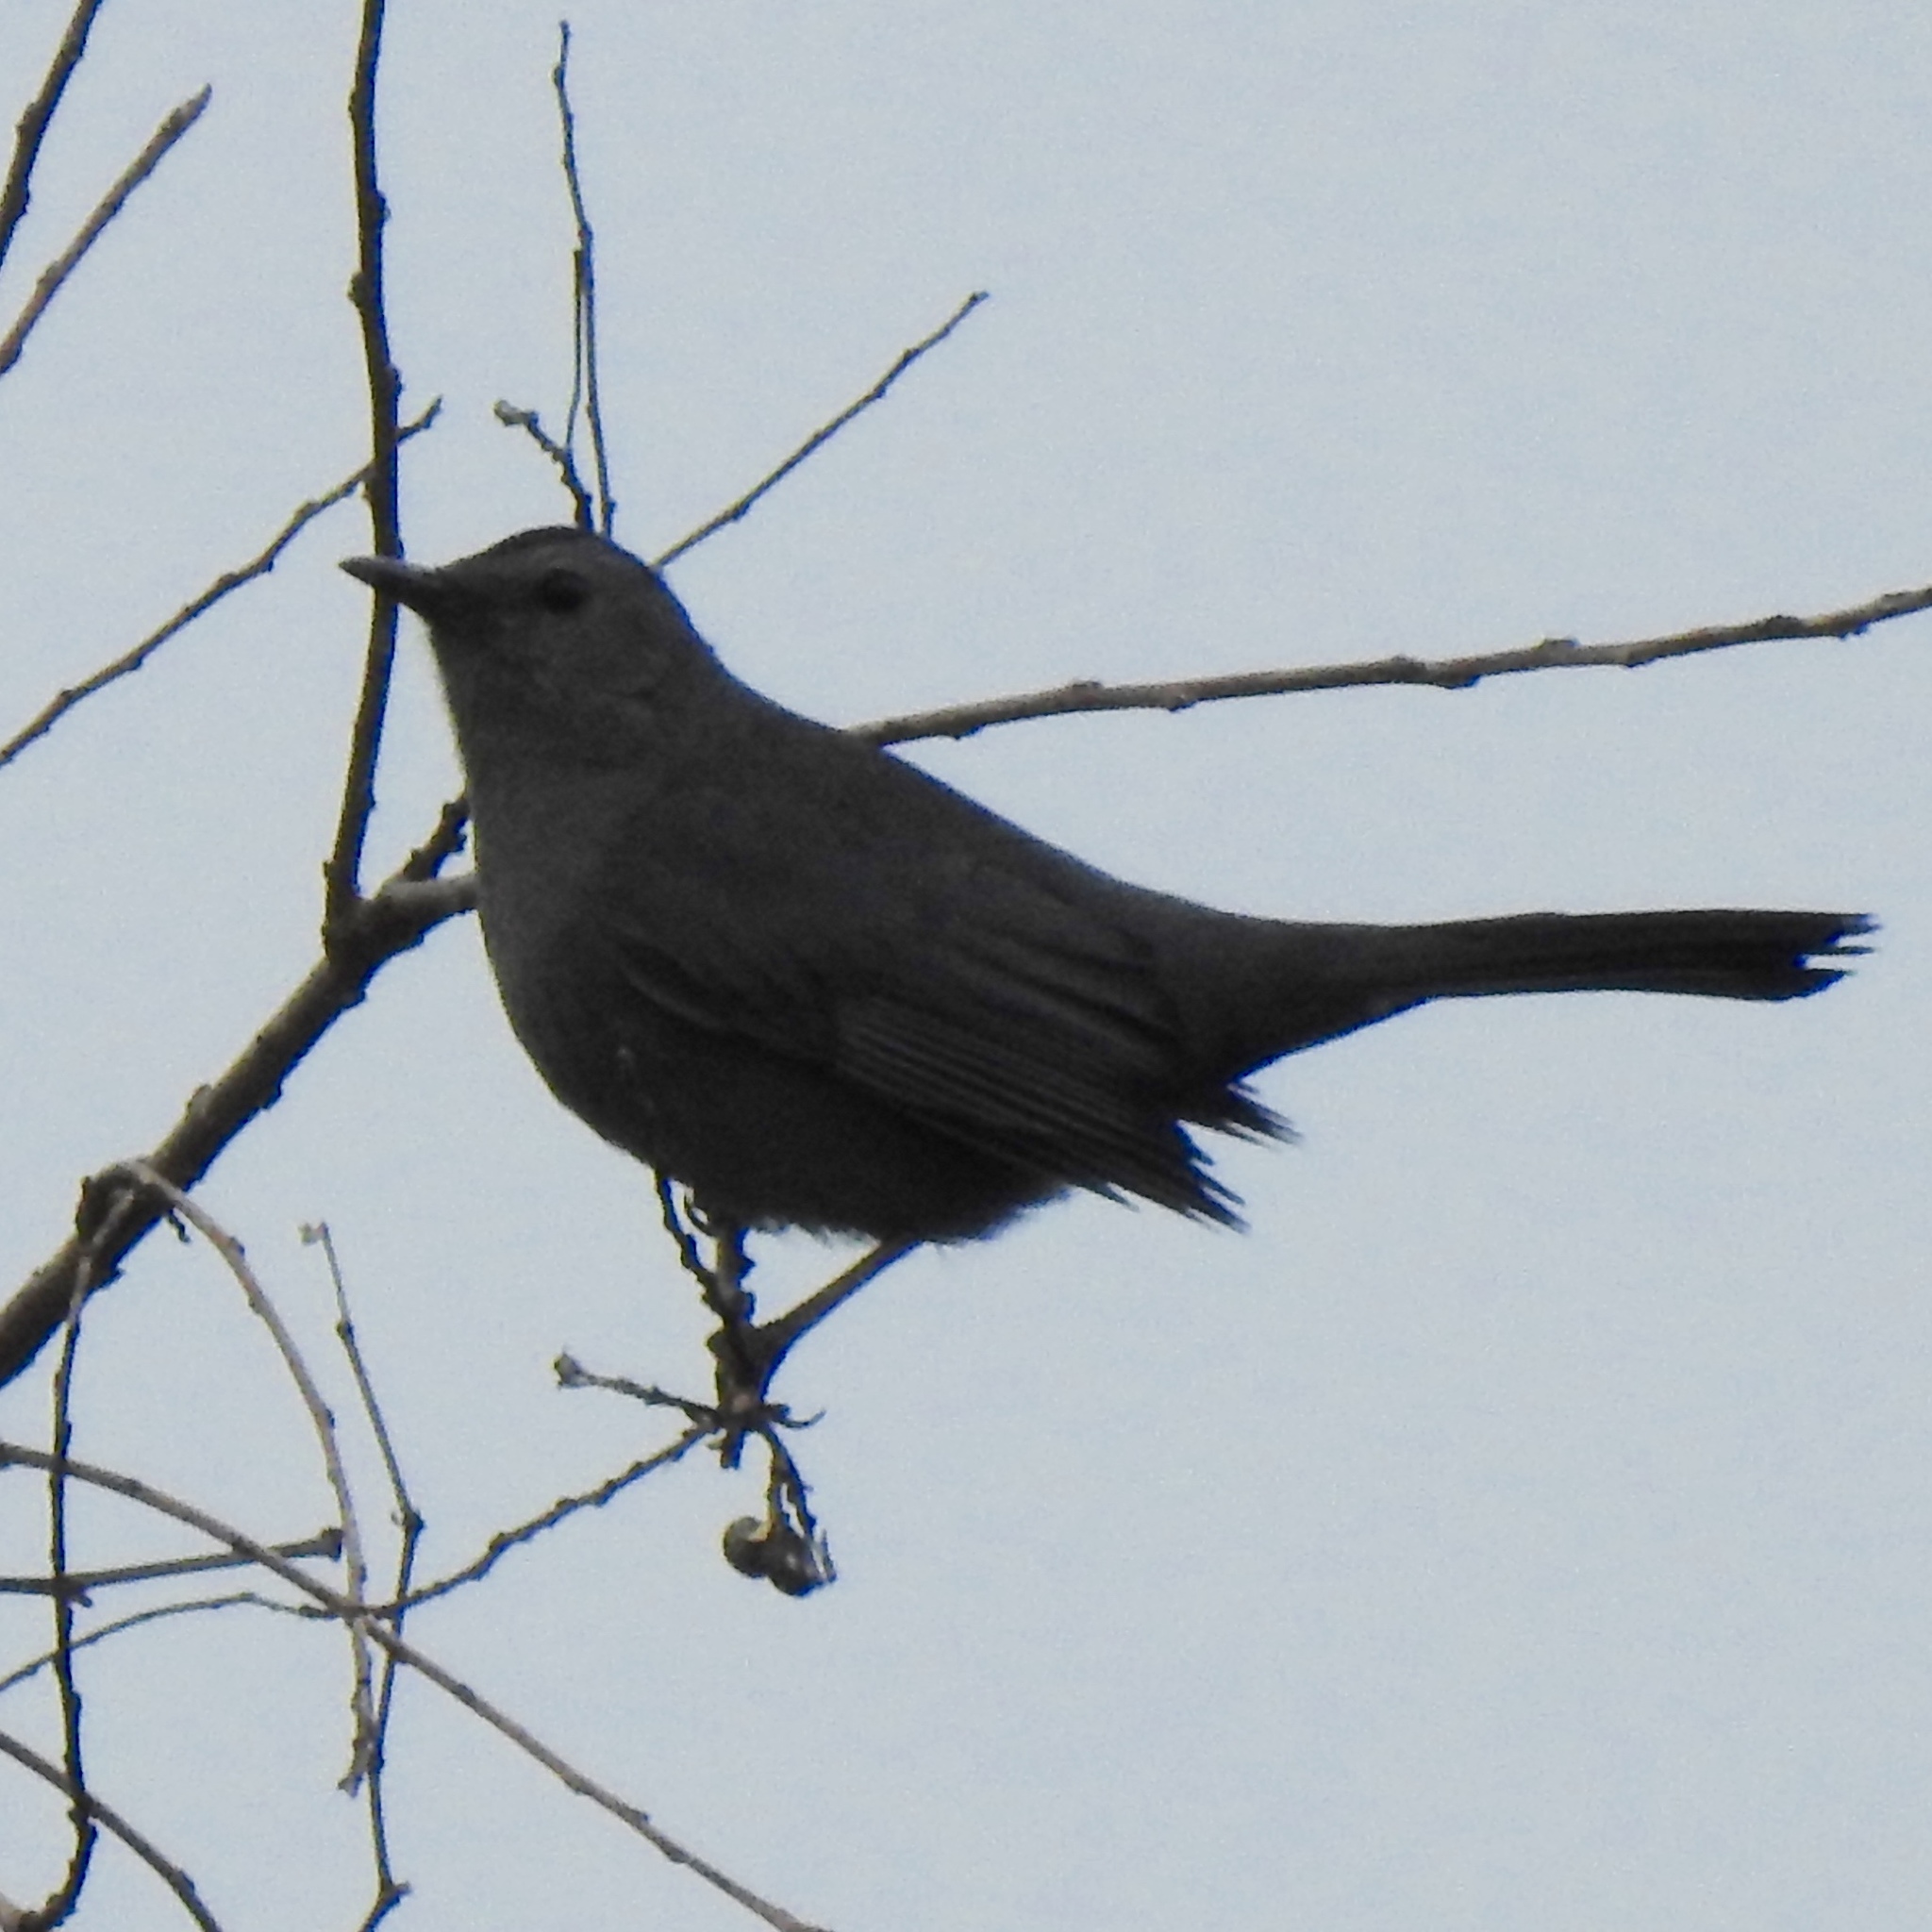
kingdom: Animalia
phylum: Chordata
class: Aves
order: Passeriformes
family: Mimidae
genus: Dumetella
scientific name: Dumetella carolinensis
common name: Gray catbird
